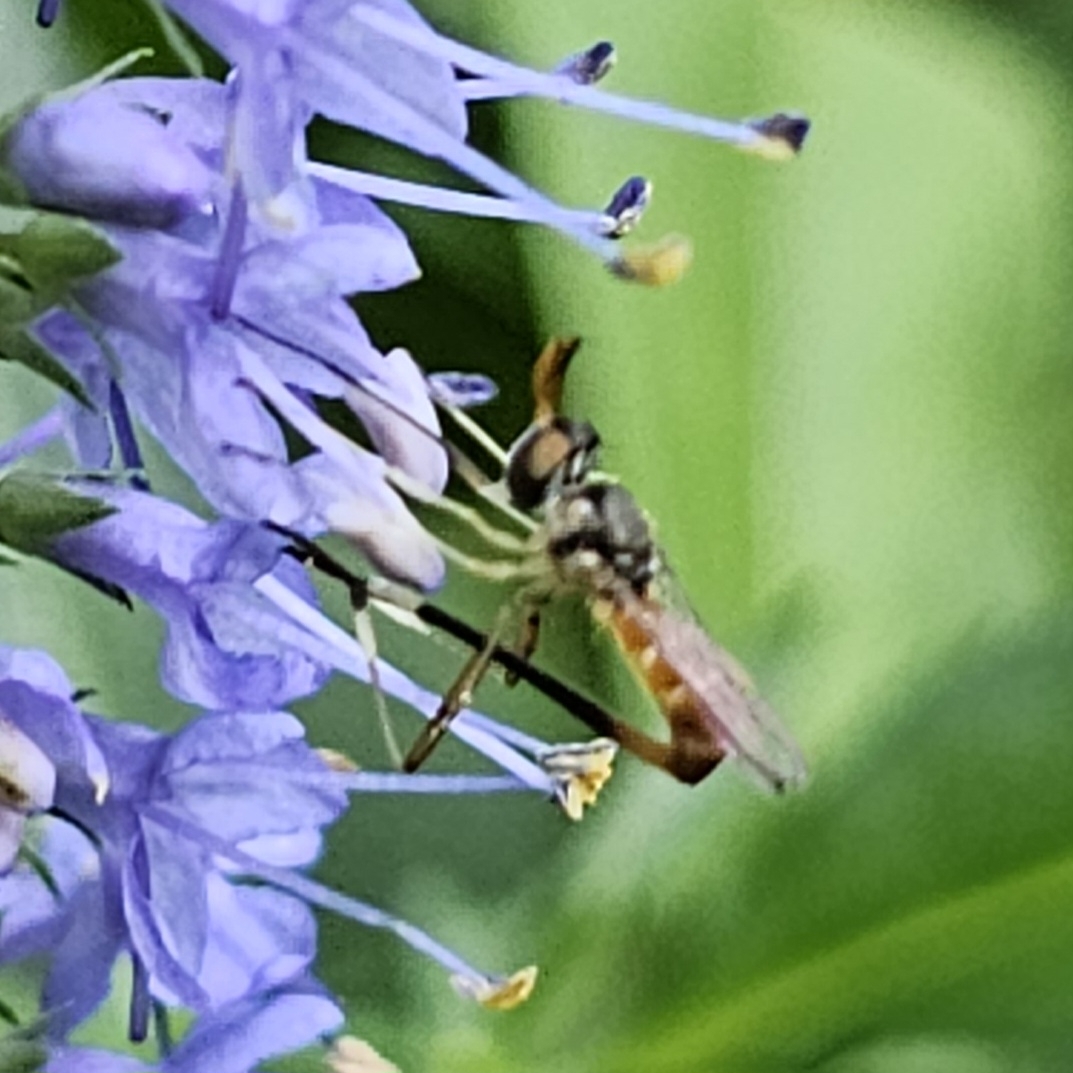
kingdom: Animalia
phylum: Arthropoda
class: Insecta
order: Diptera
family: Conopidae
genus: Stylogaster
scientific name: Stylogaster neglecta
